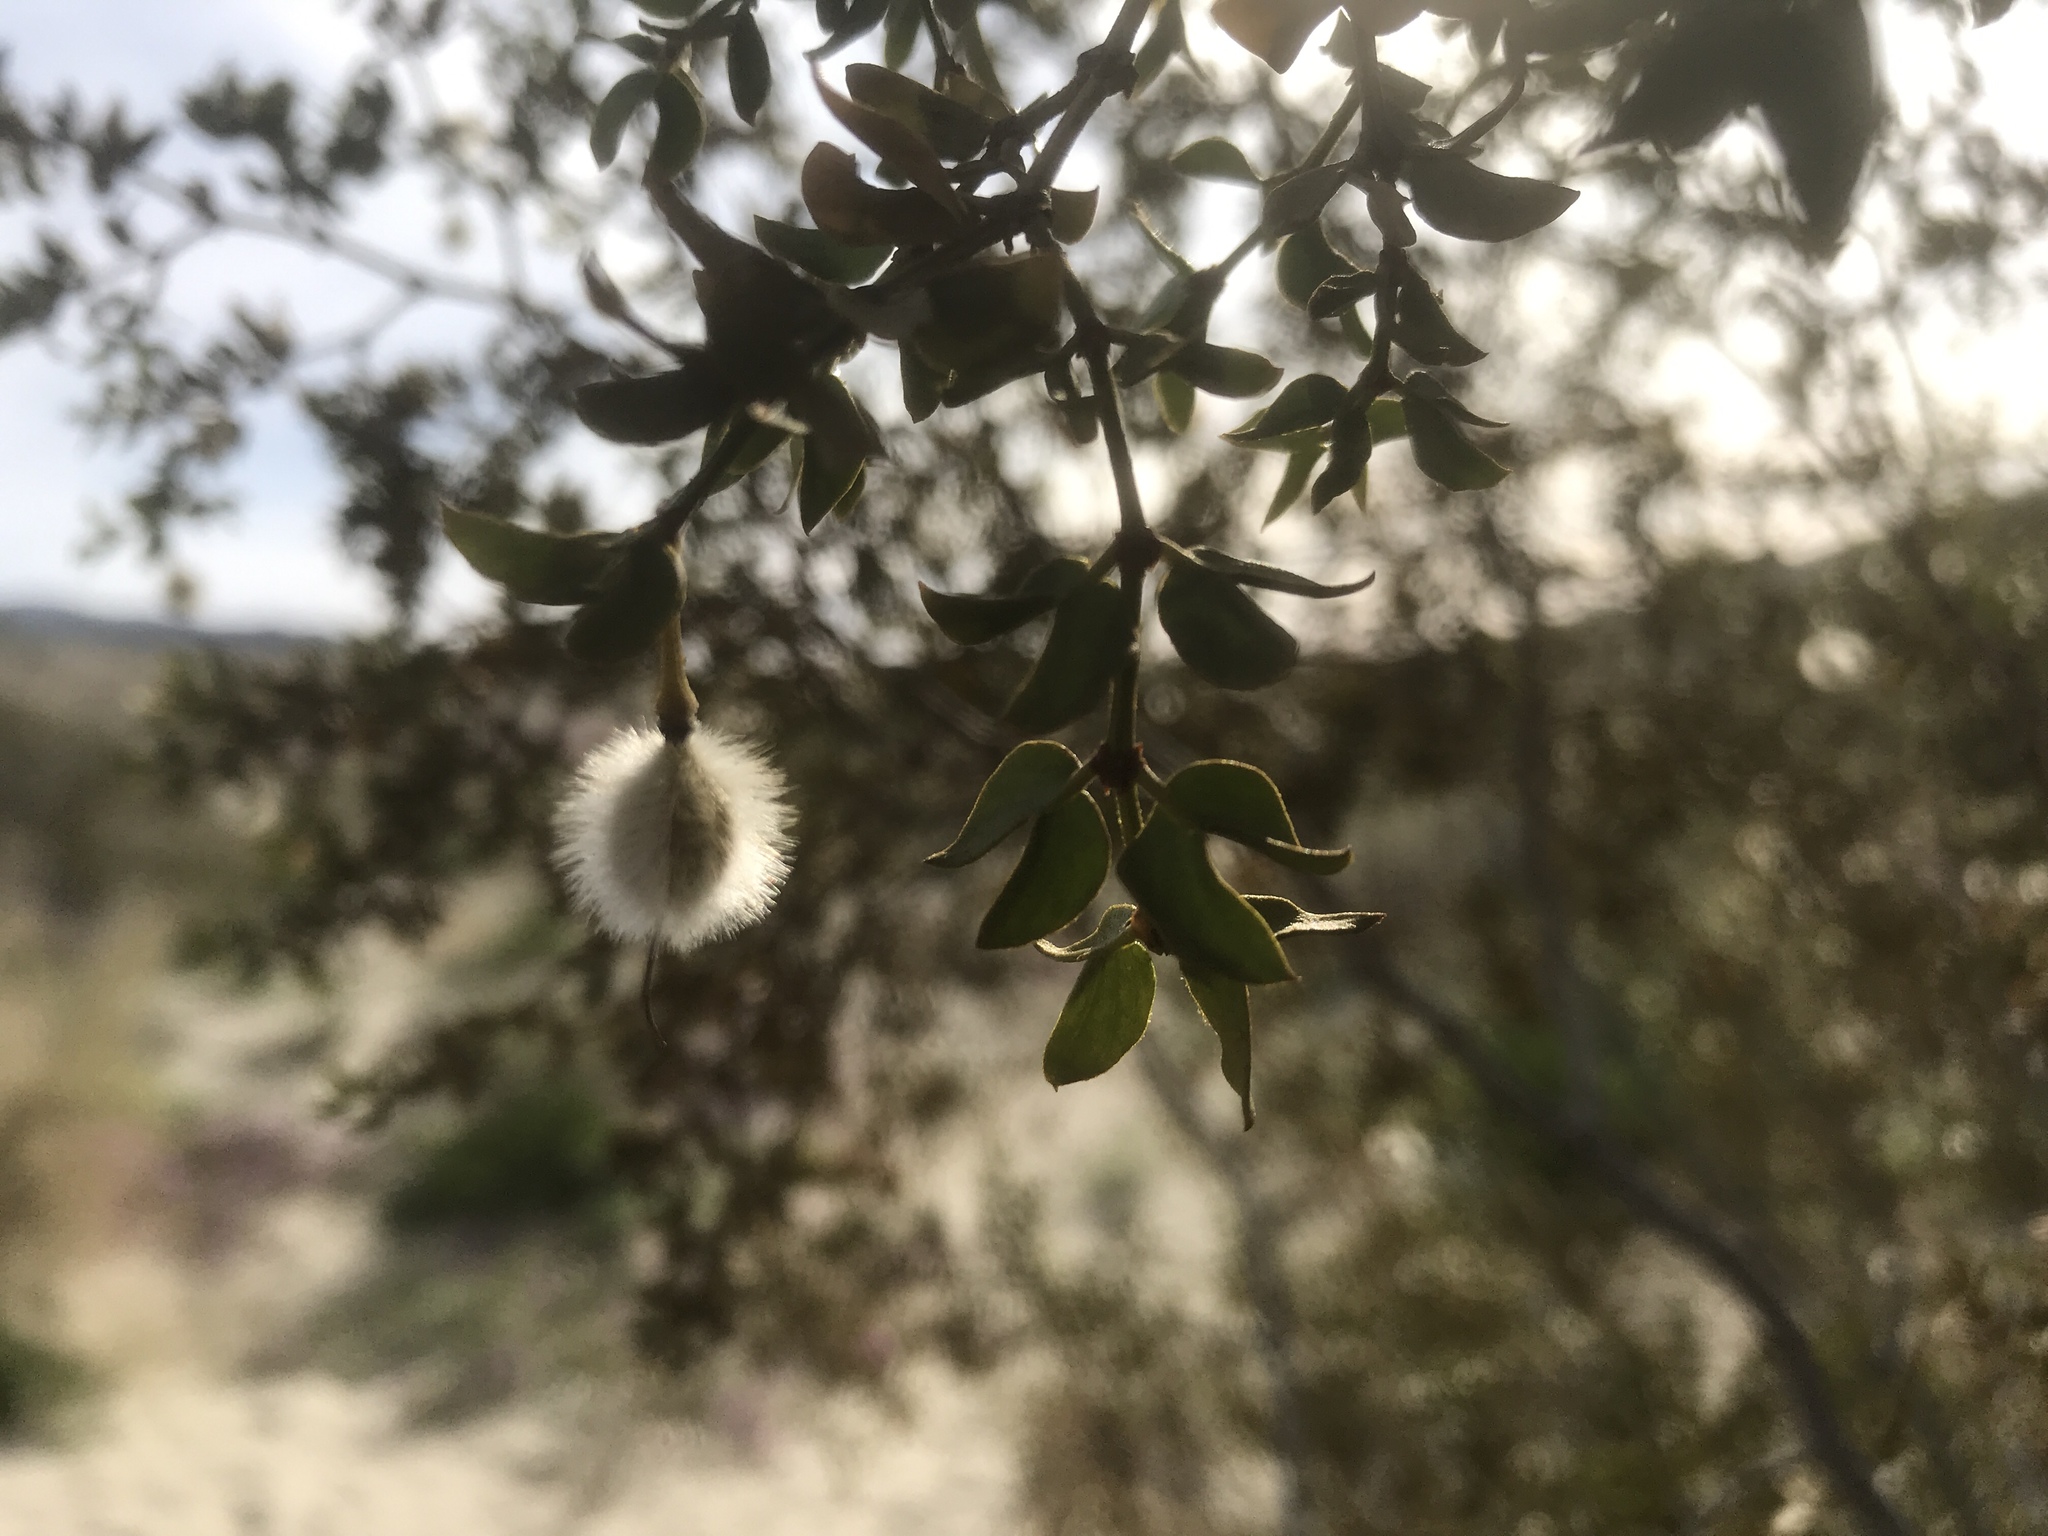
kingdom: Plantae
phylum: Tracheophyta
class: Magnoliopsida
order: Zygophyllales
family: Zygophyllaceae
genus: Larrea
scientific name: Larrea tridentata
